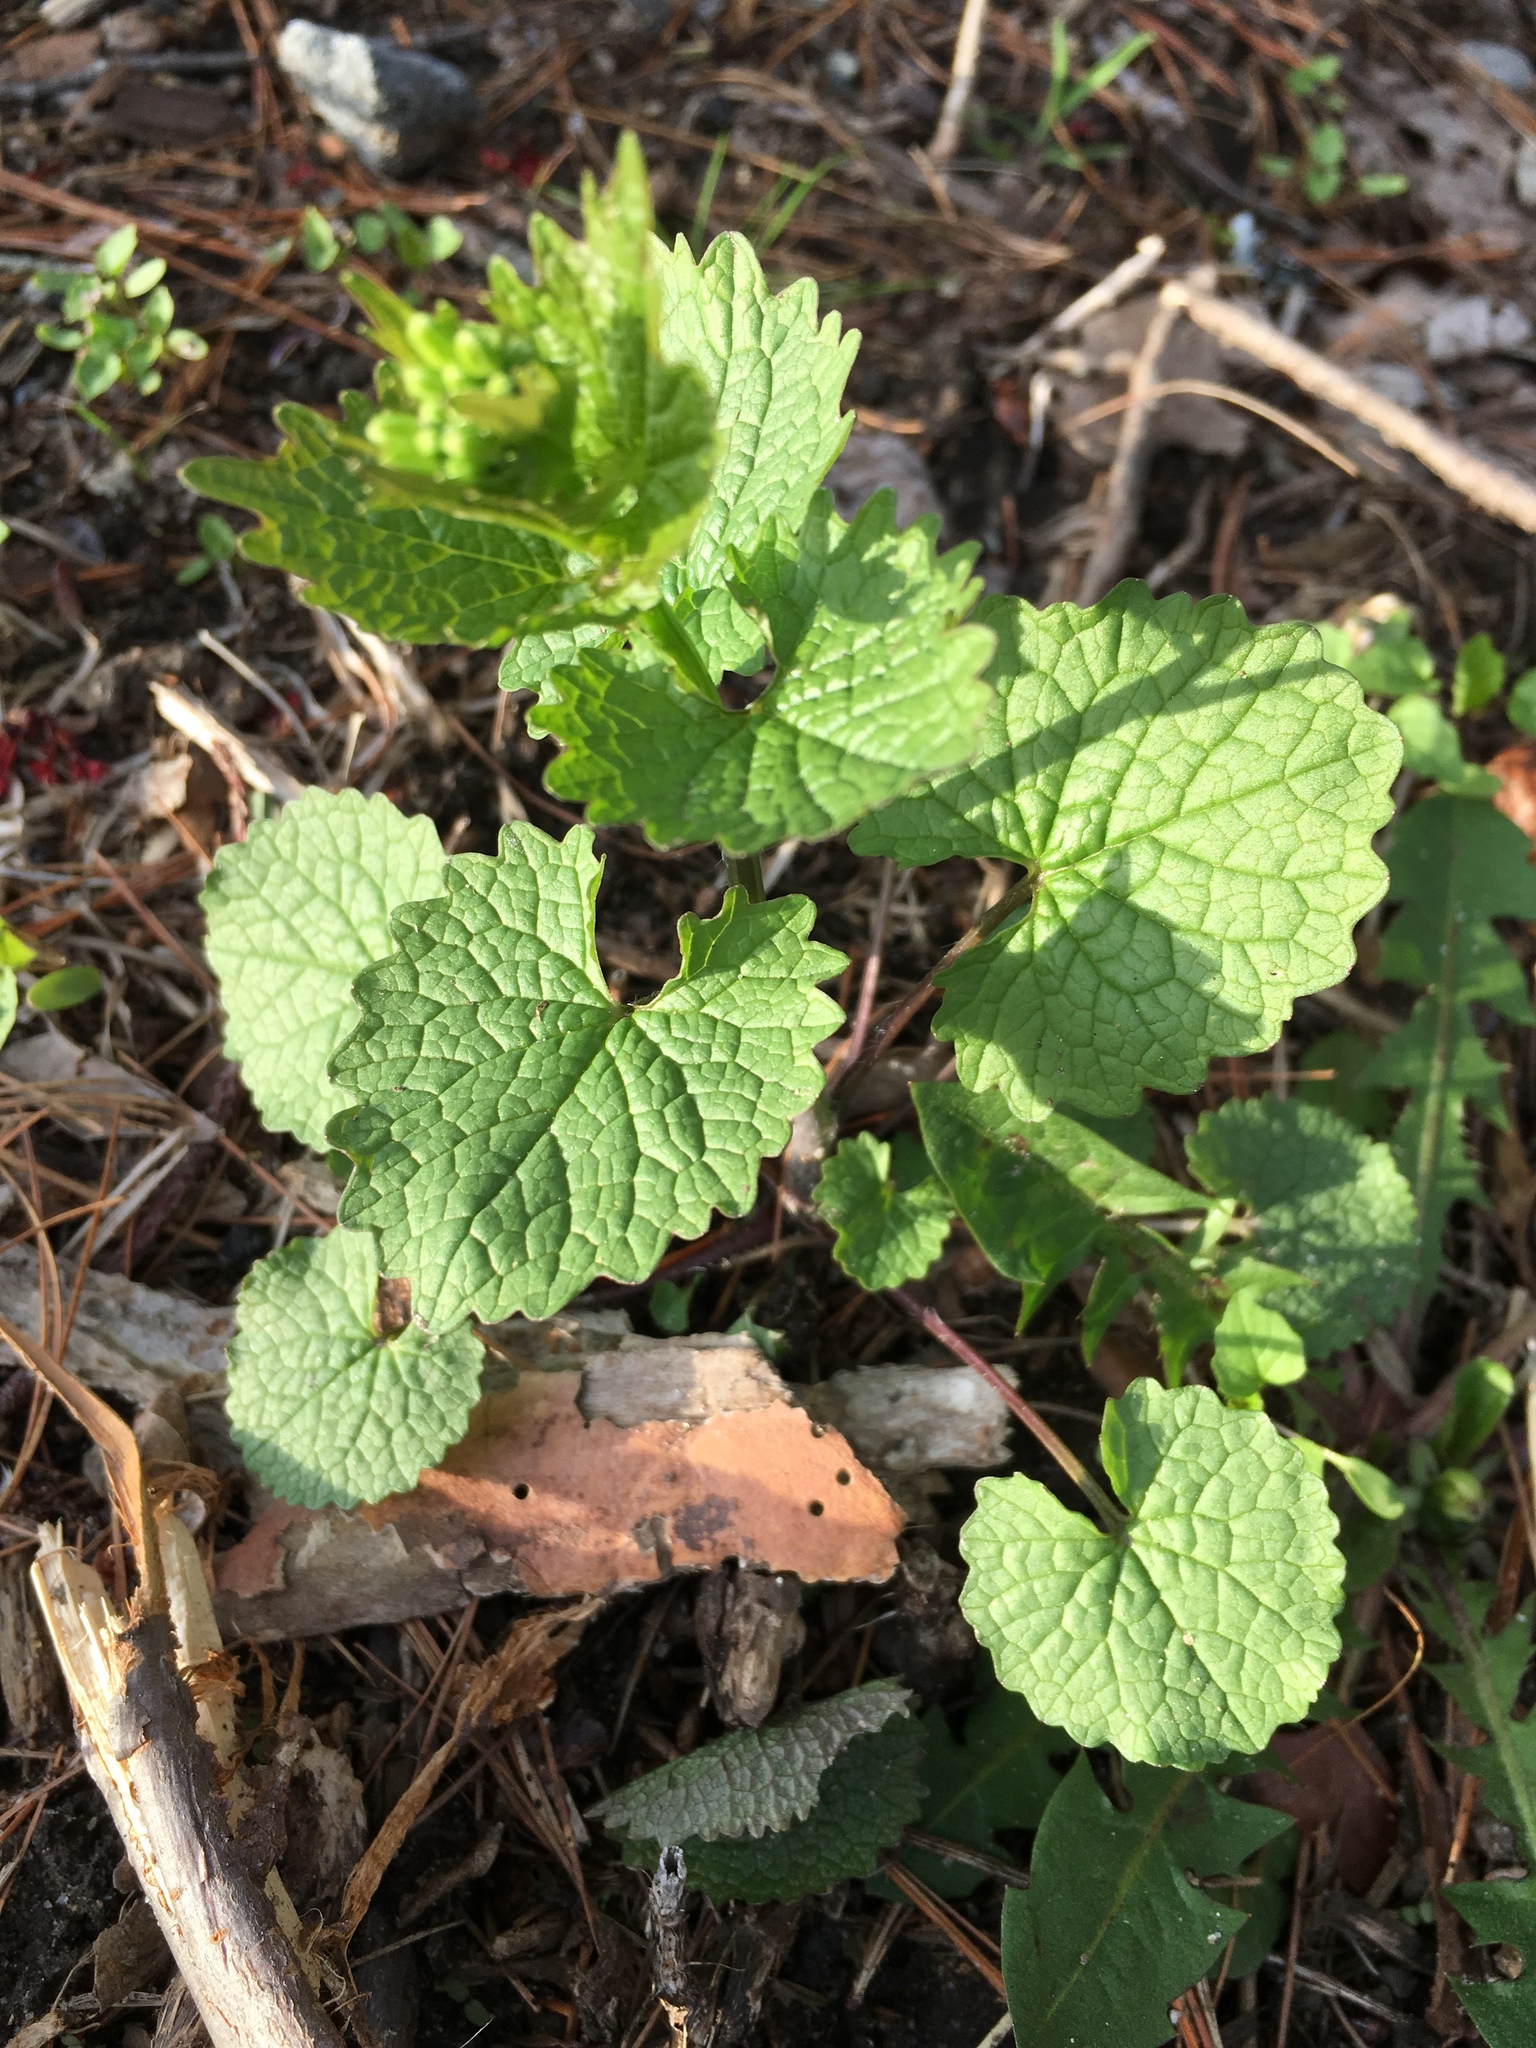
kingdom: Plantae
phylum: Tracheophyta
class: Magnoliopsida
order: Brassicales
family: Brassicaceae
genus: Alliaria
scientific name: Alliaria petiolata
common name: Garlic mustard
